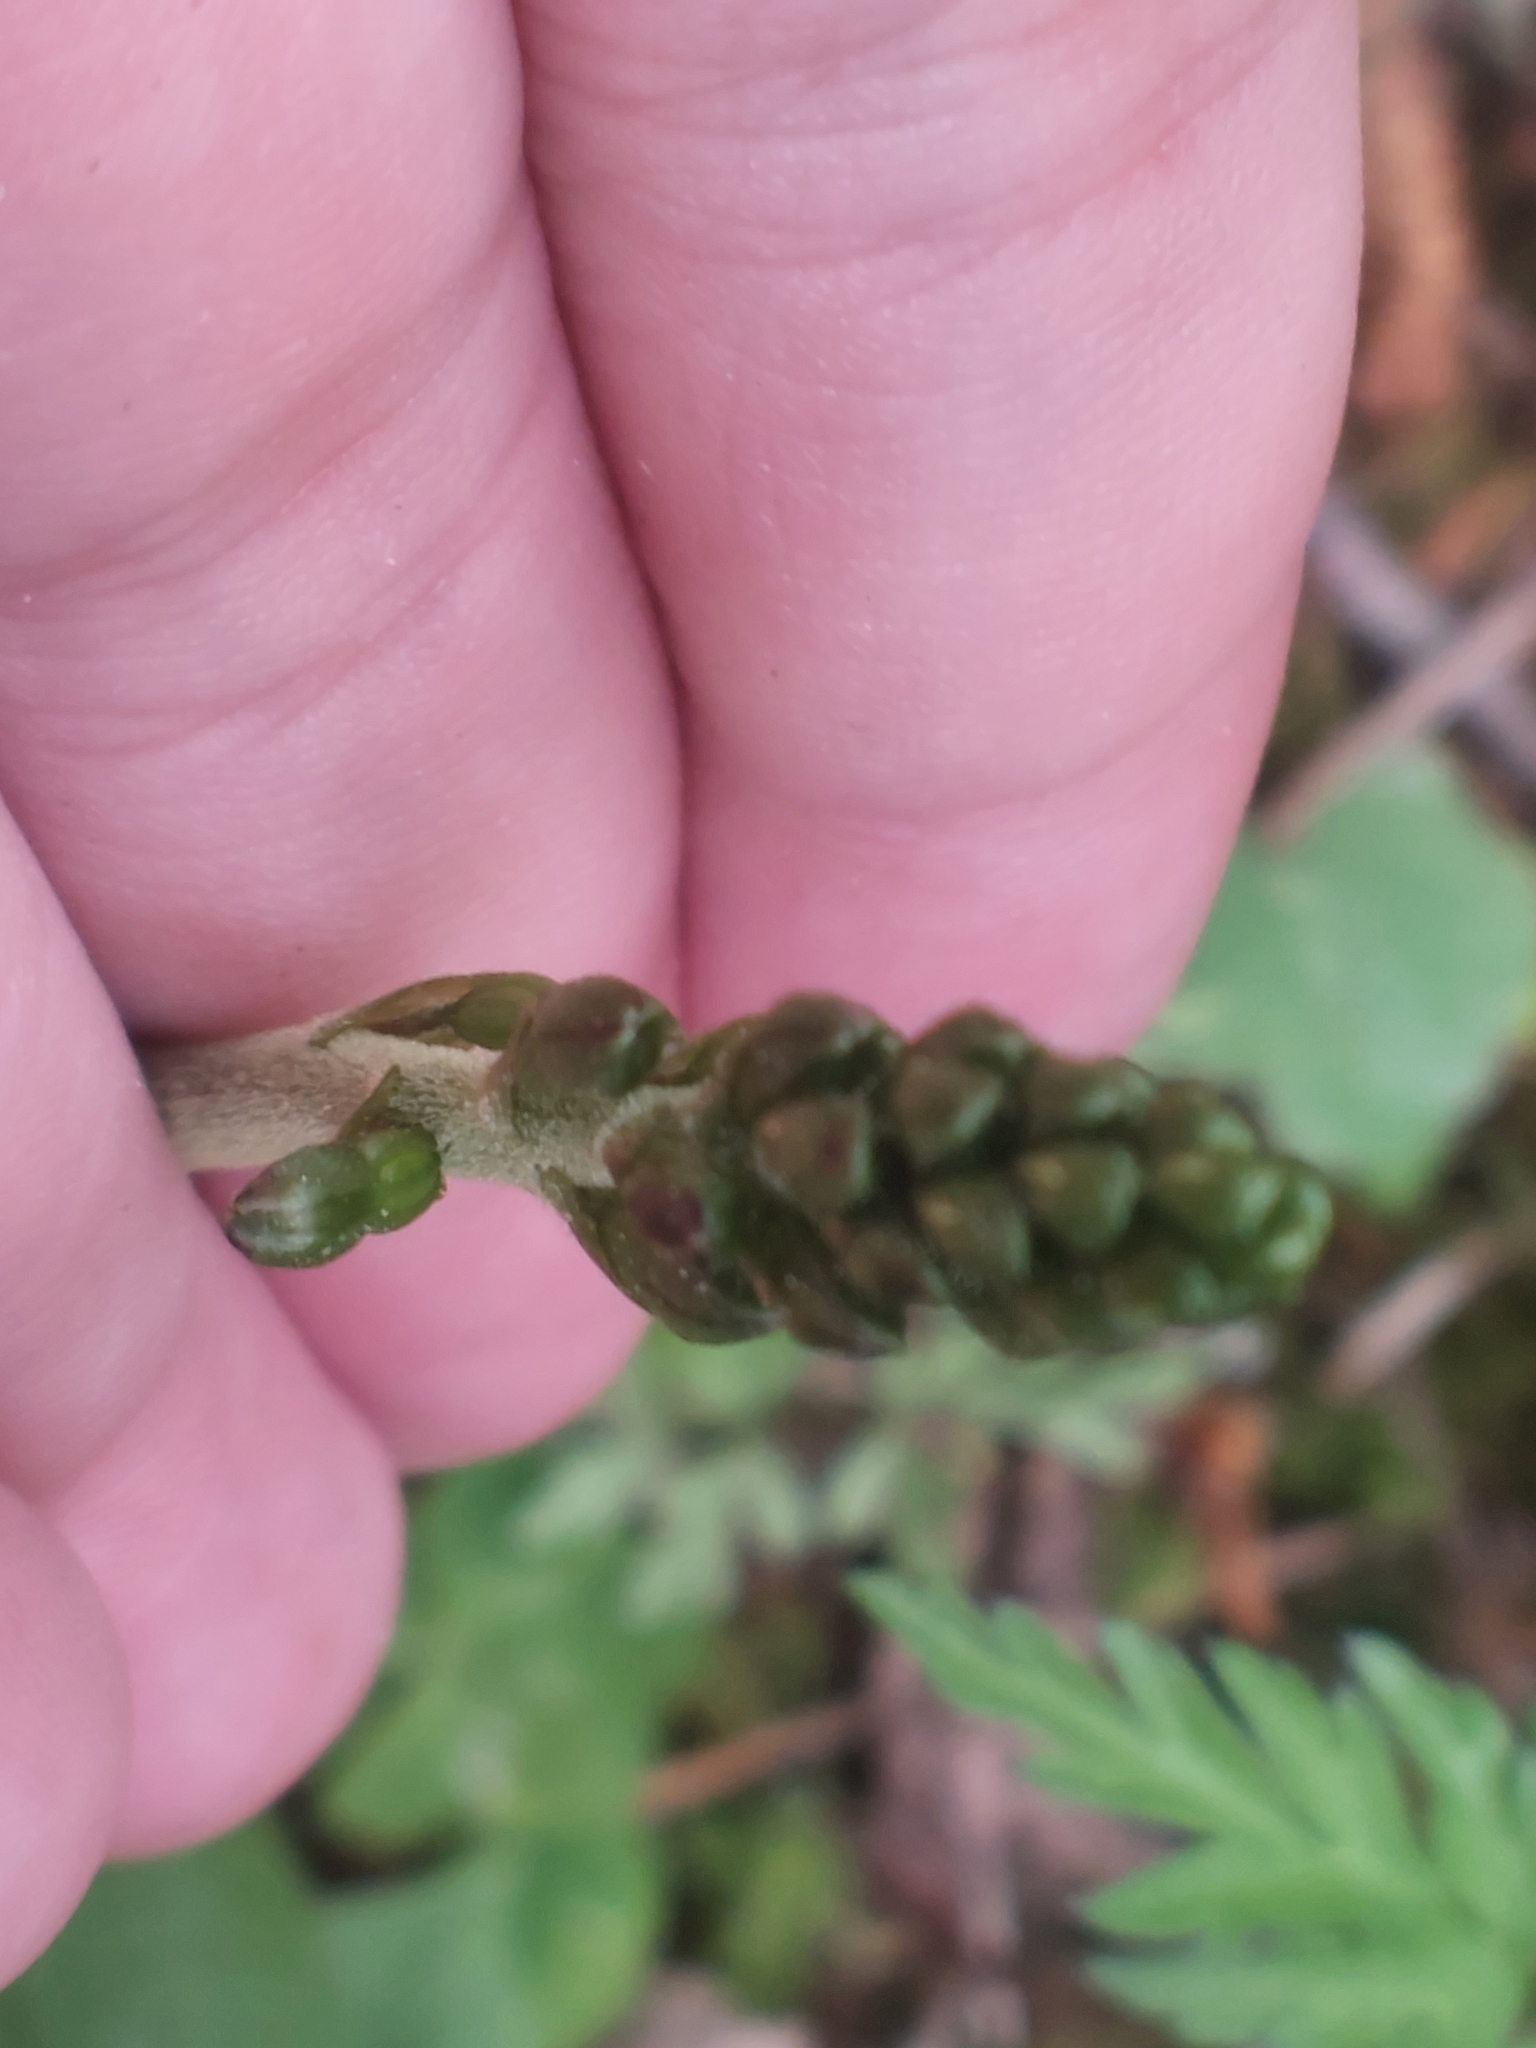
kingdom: Plantae
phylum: Tracheophyta
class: Liliopsida
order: Asparagales
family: Orchidaceae
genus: Neottia
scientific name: Neottia ovata
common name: Common twayblade
